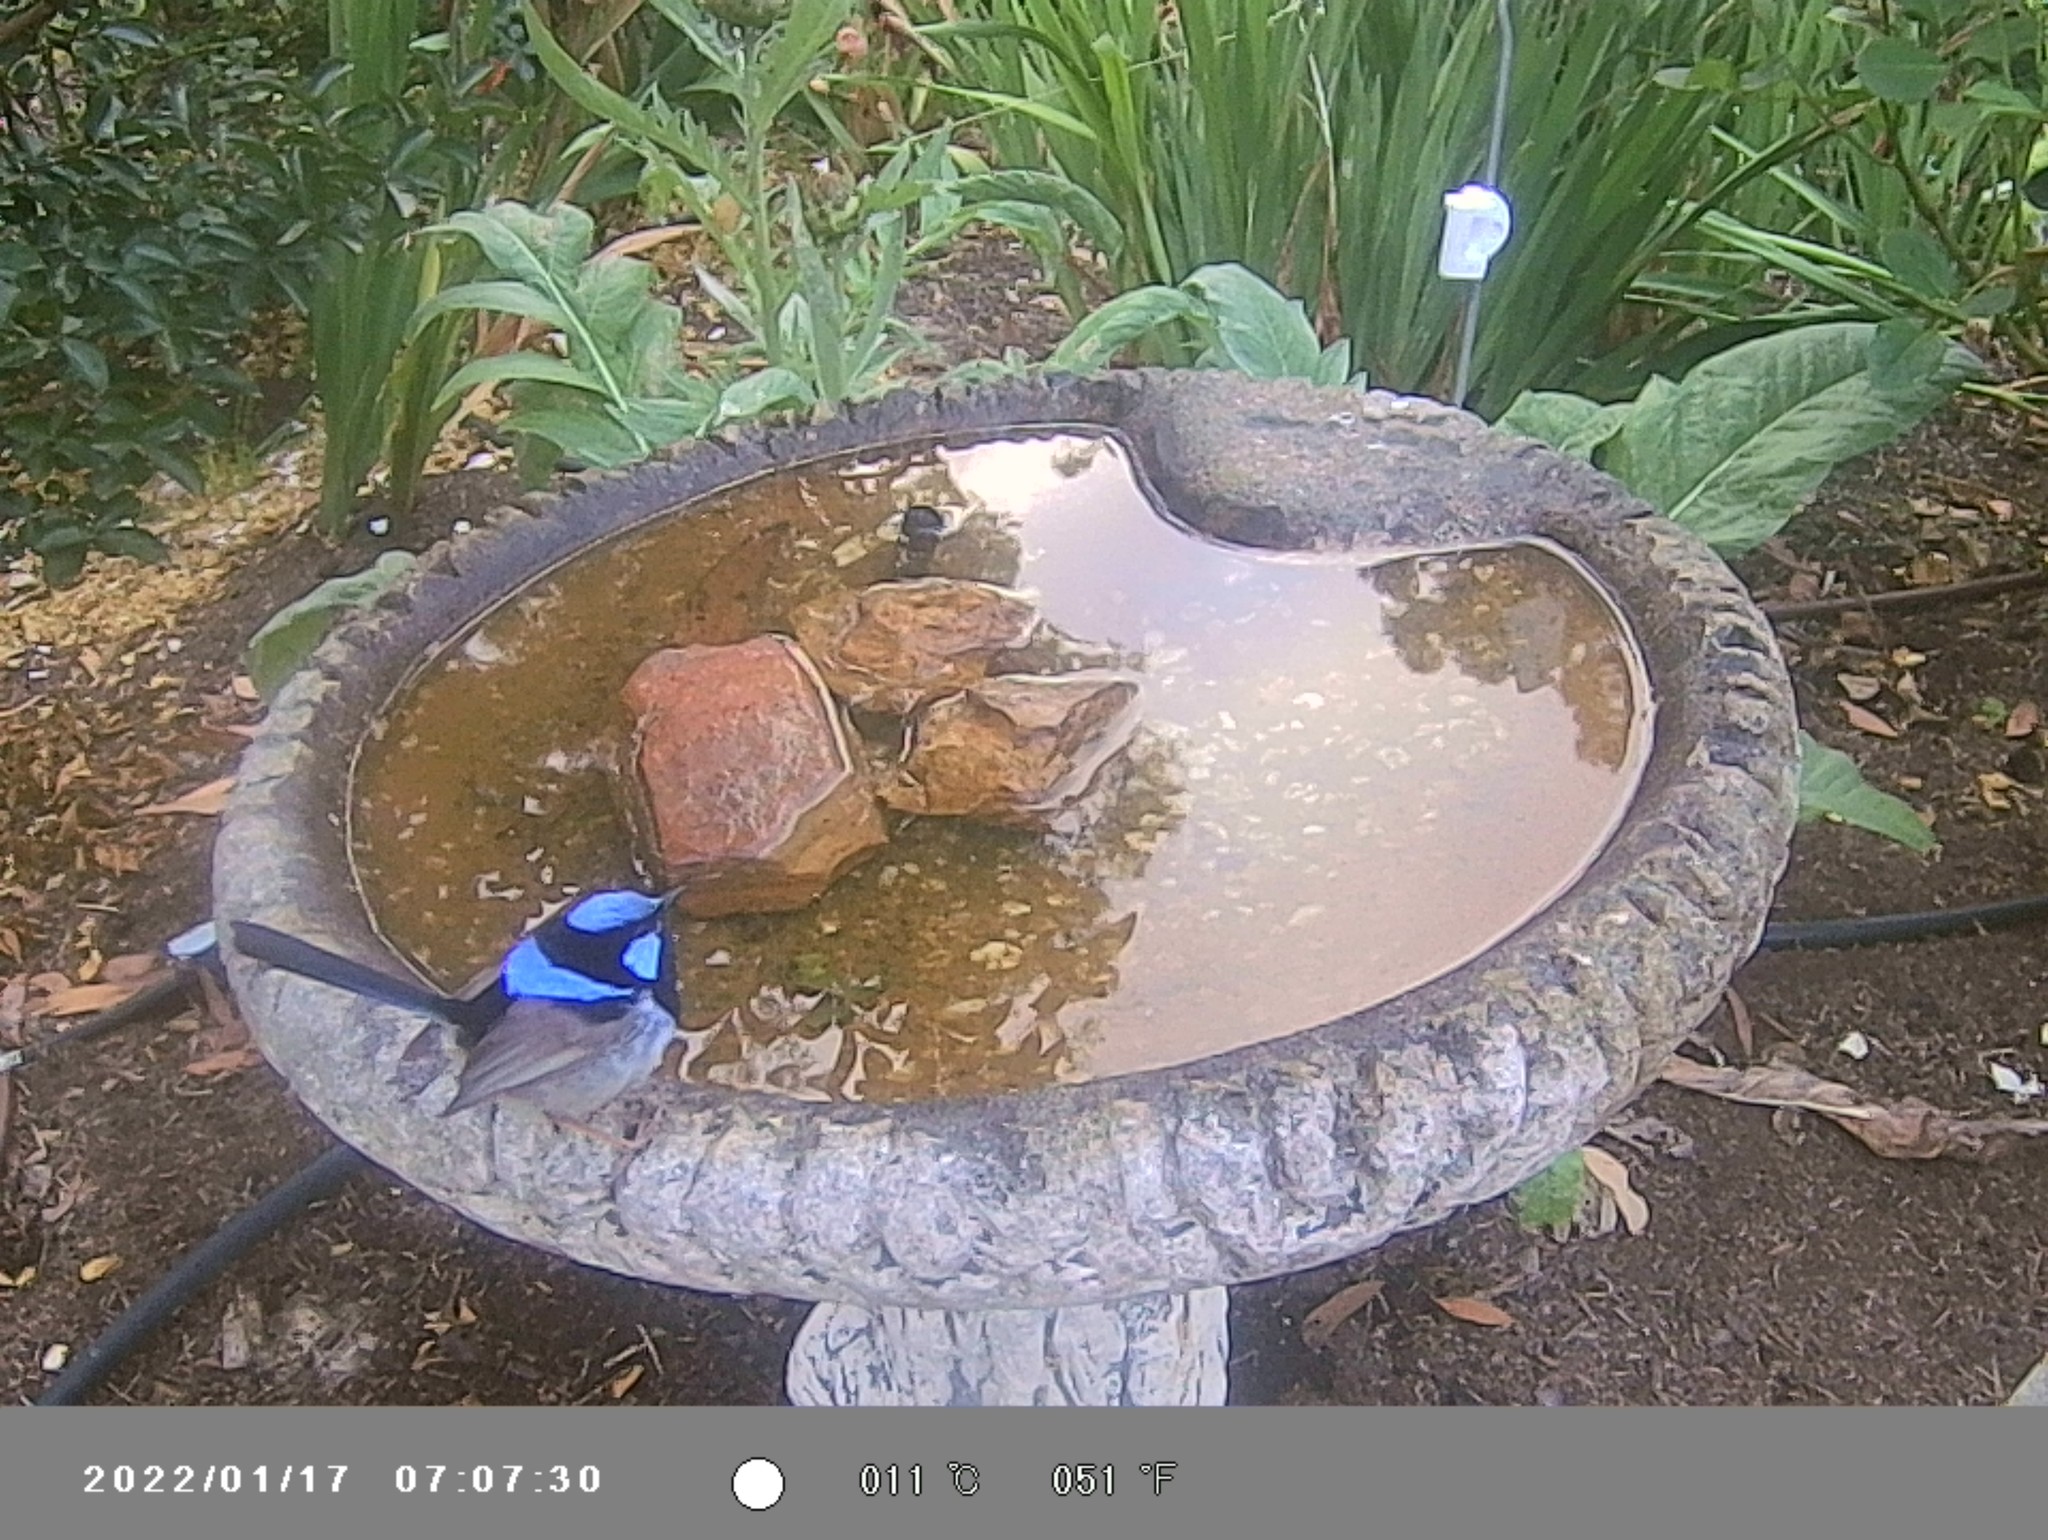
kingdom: Animalia
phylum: Chordata
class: Aves
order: Passeriformes
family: Maluridae
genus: Malurus
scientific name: Malurus cyaneus
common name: Superb fairywren
